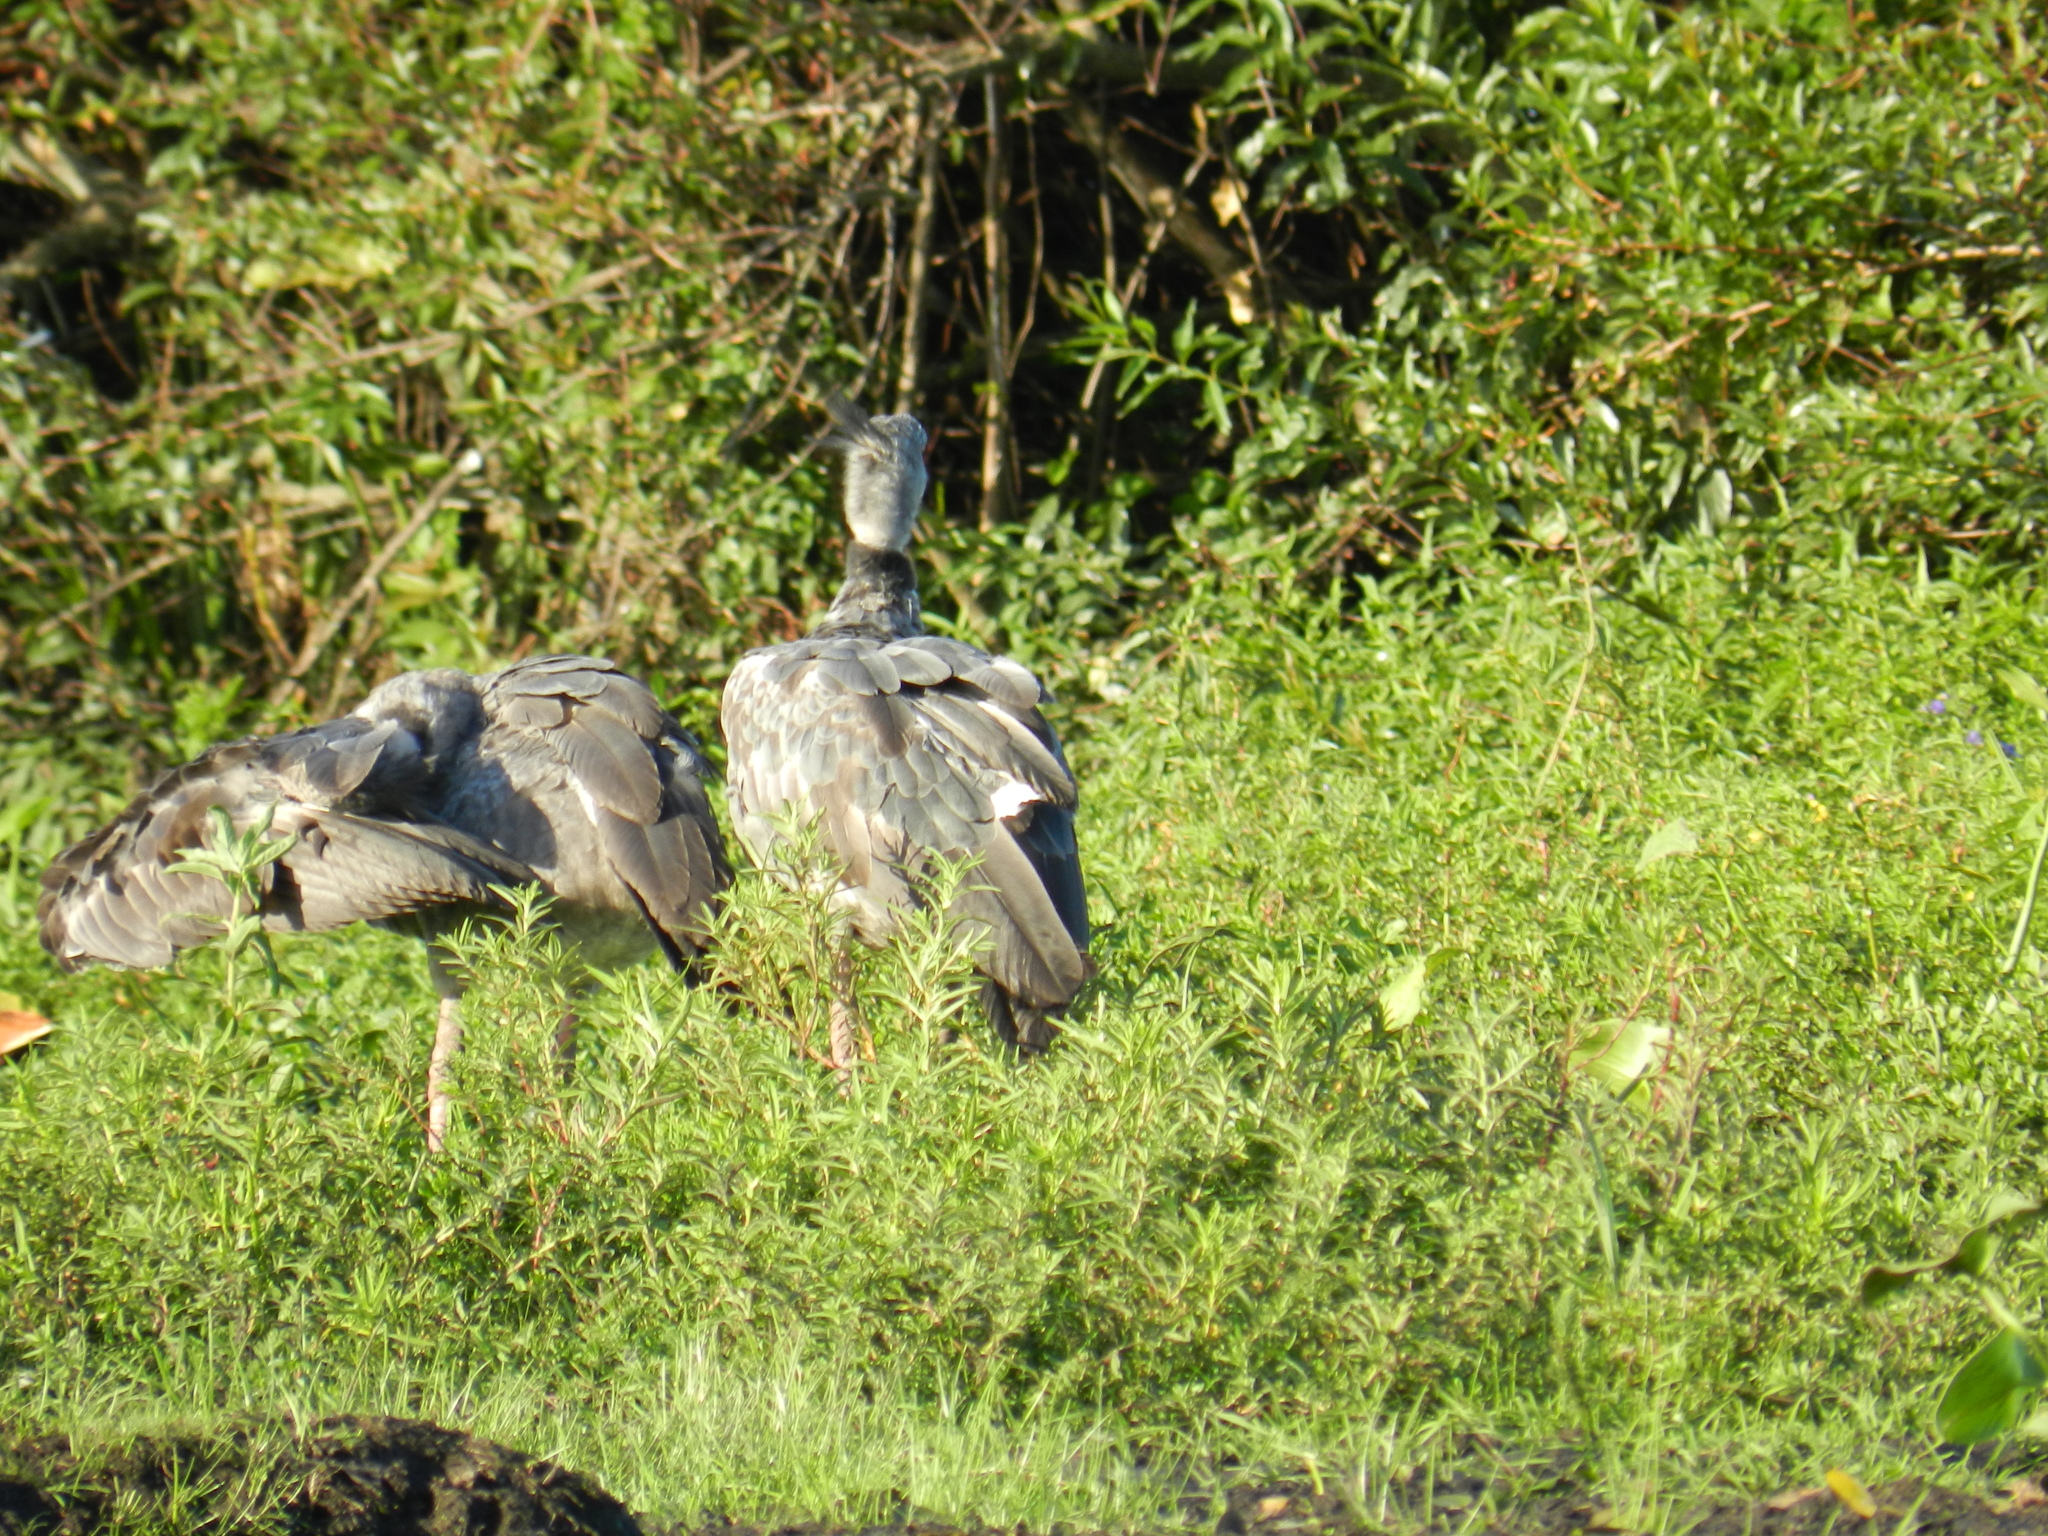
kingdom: Animalia
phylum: Chordata
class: Aves
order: Anseriformes
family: Anhimidae
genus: Chauna
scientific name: Chauna torquata
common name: Southern screamer
